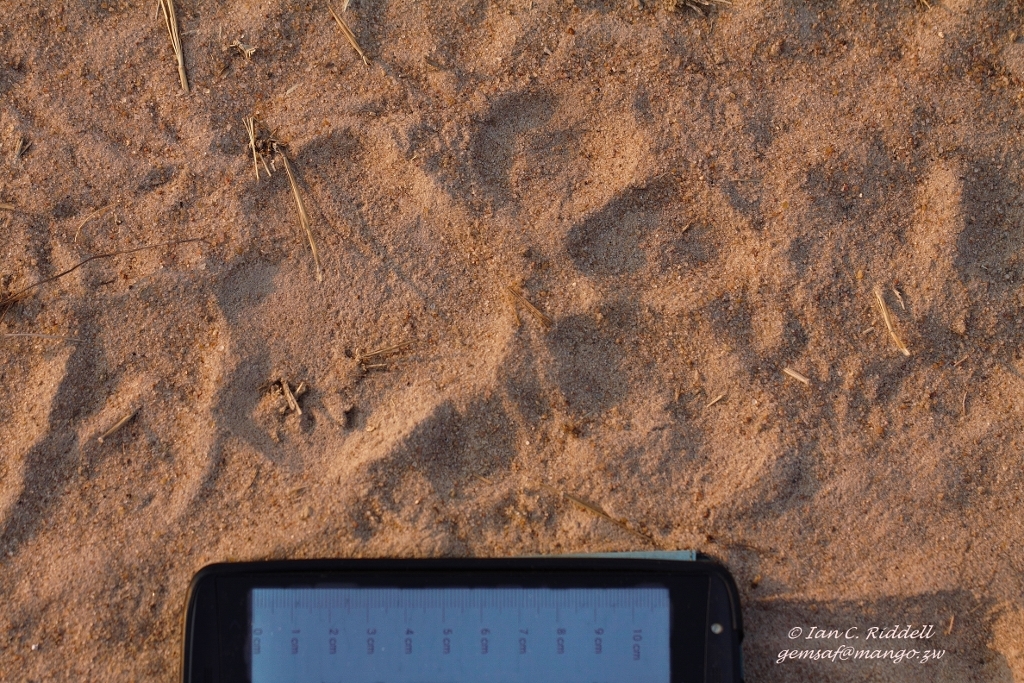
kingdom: Animalia
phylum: Chordata
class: Mammalia
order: Carnivora
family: Felidae
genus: Panthera
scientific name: Panthera leo
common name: Lion
